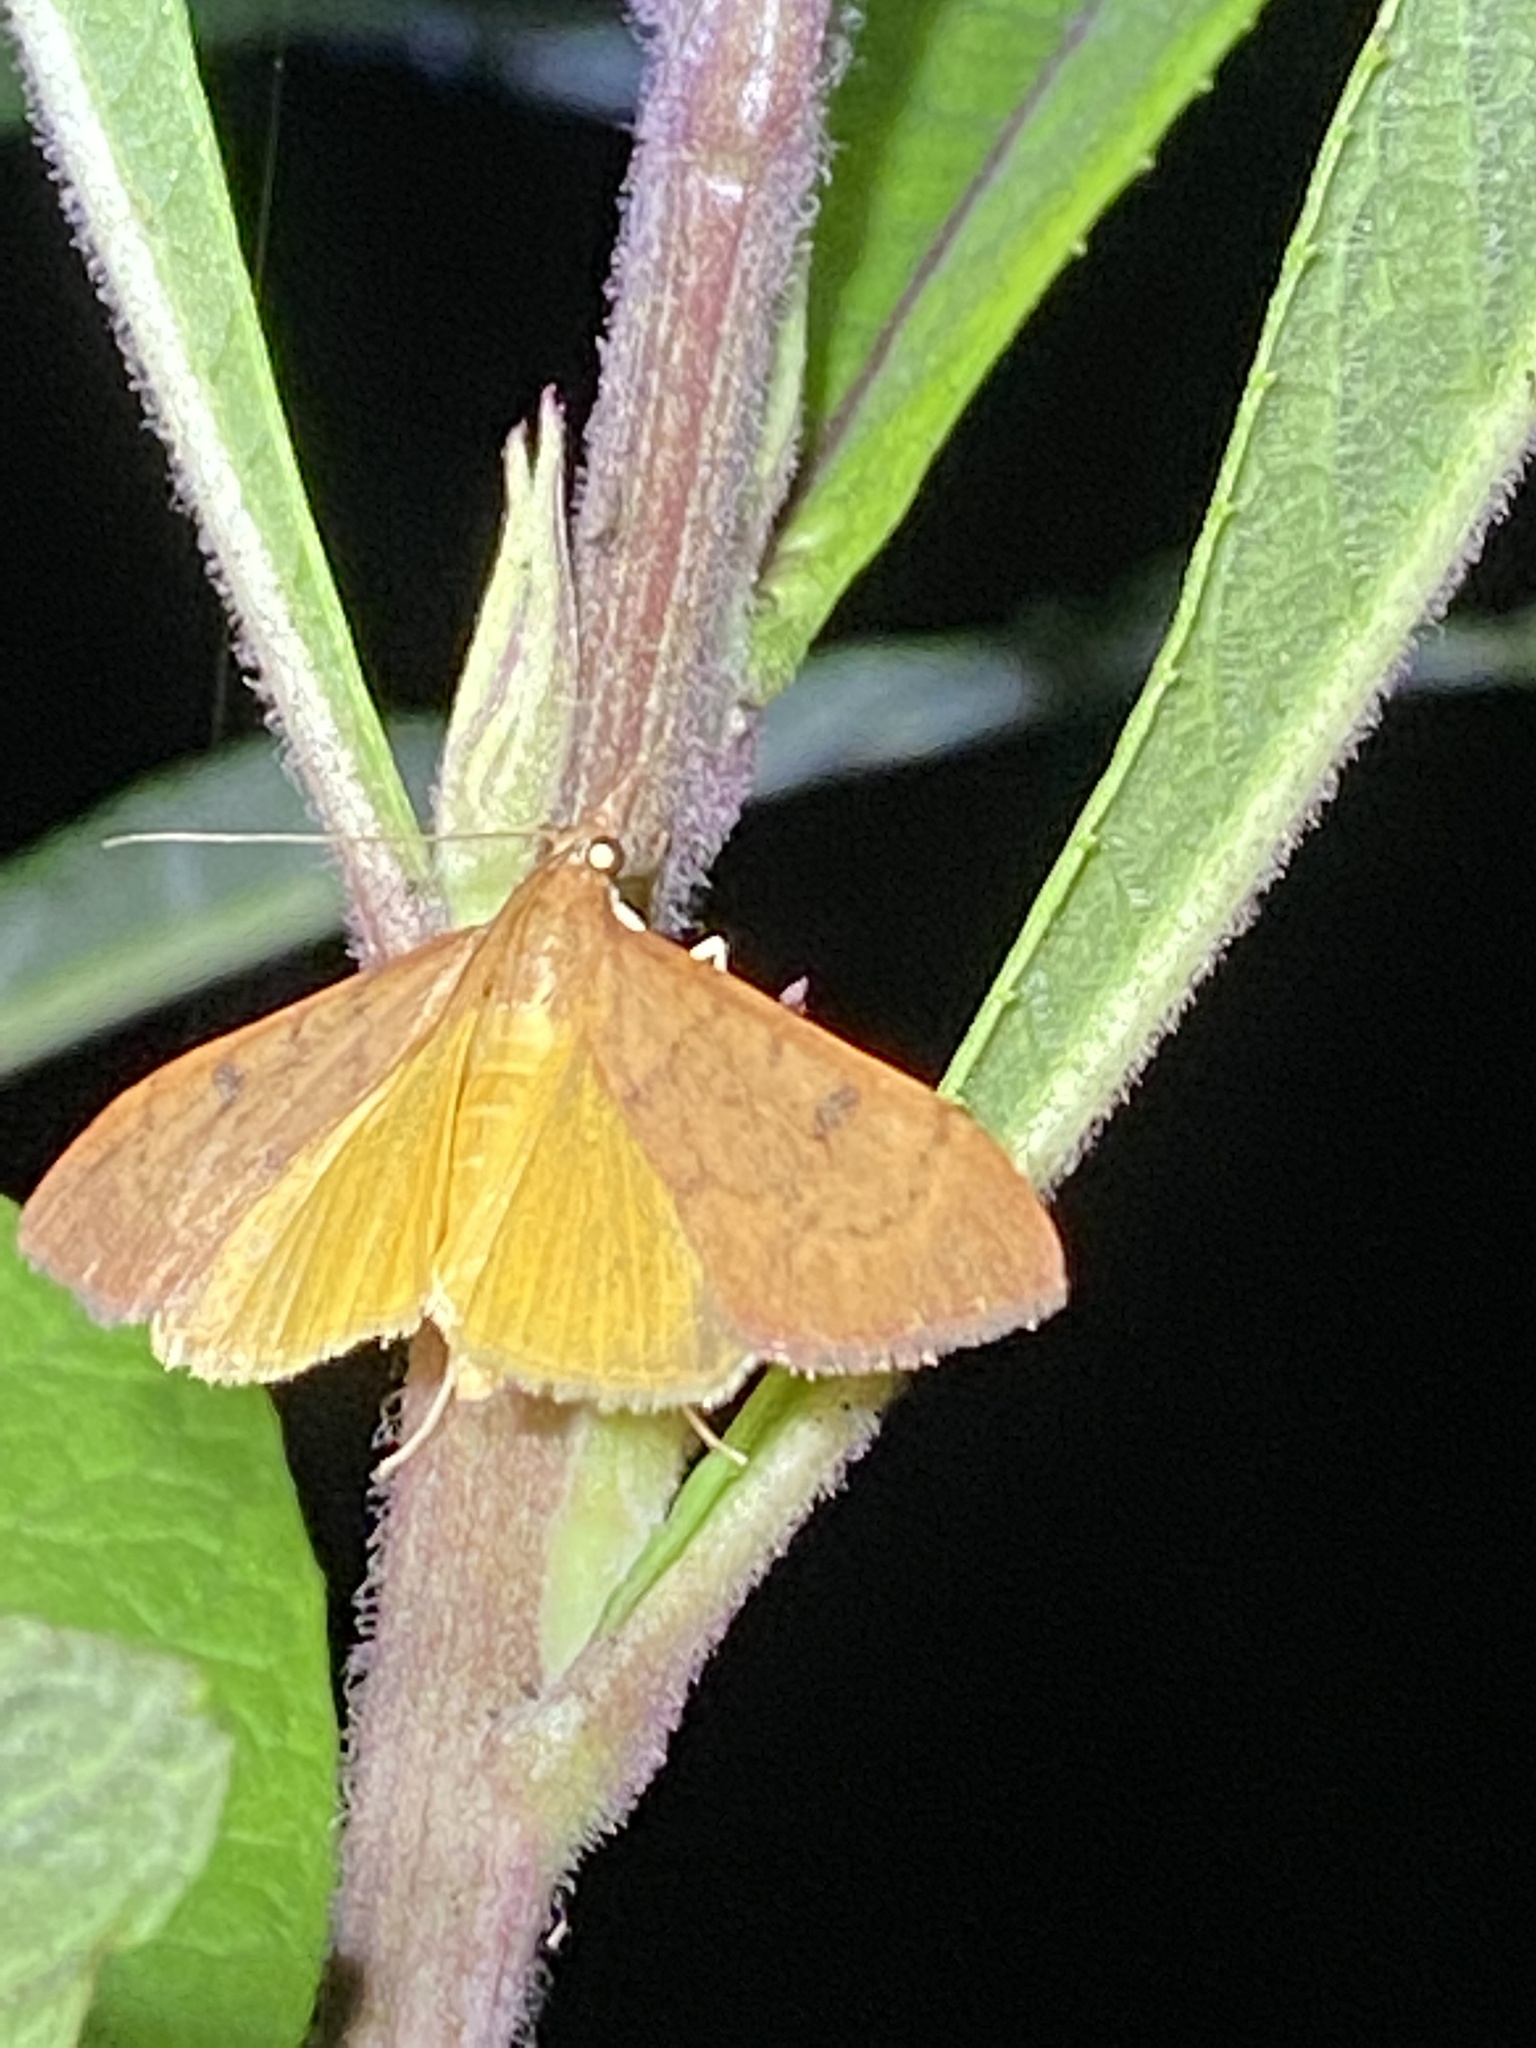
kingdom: Animalia
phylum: Arthropoda
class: Insecta
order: Lepidoptera
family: Crambidae
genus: Uresiphita
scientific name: Uresiphita reversalis
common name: Genista broom moth
